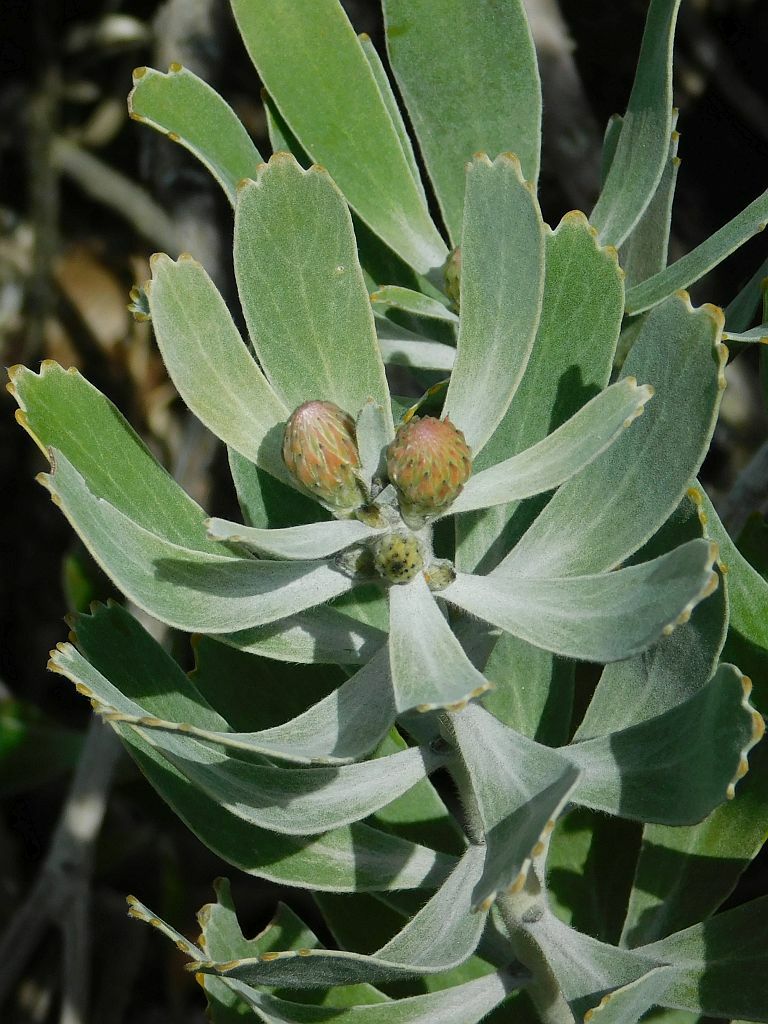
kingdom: Plantae
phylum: Tracheophyta
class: Magnoliopsida
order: Proteales
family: Proteaceae
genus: Leucospermum
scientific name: Leucospermum cuneiforme
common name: Common pincushion
